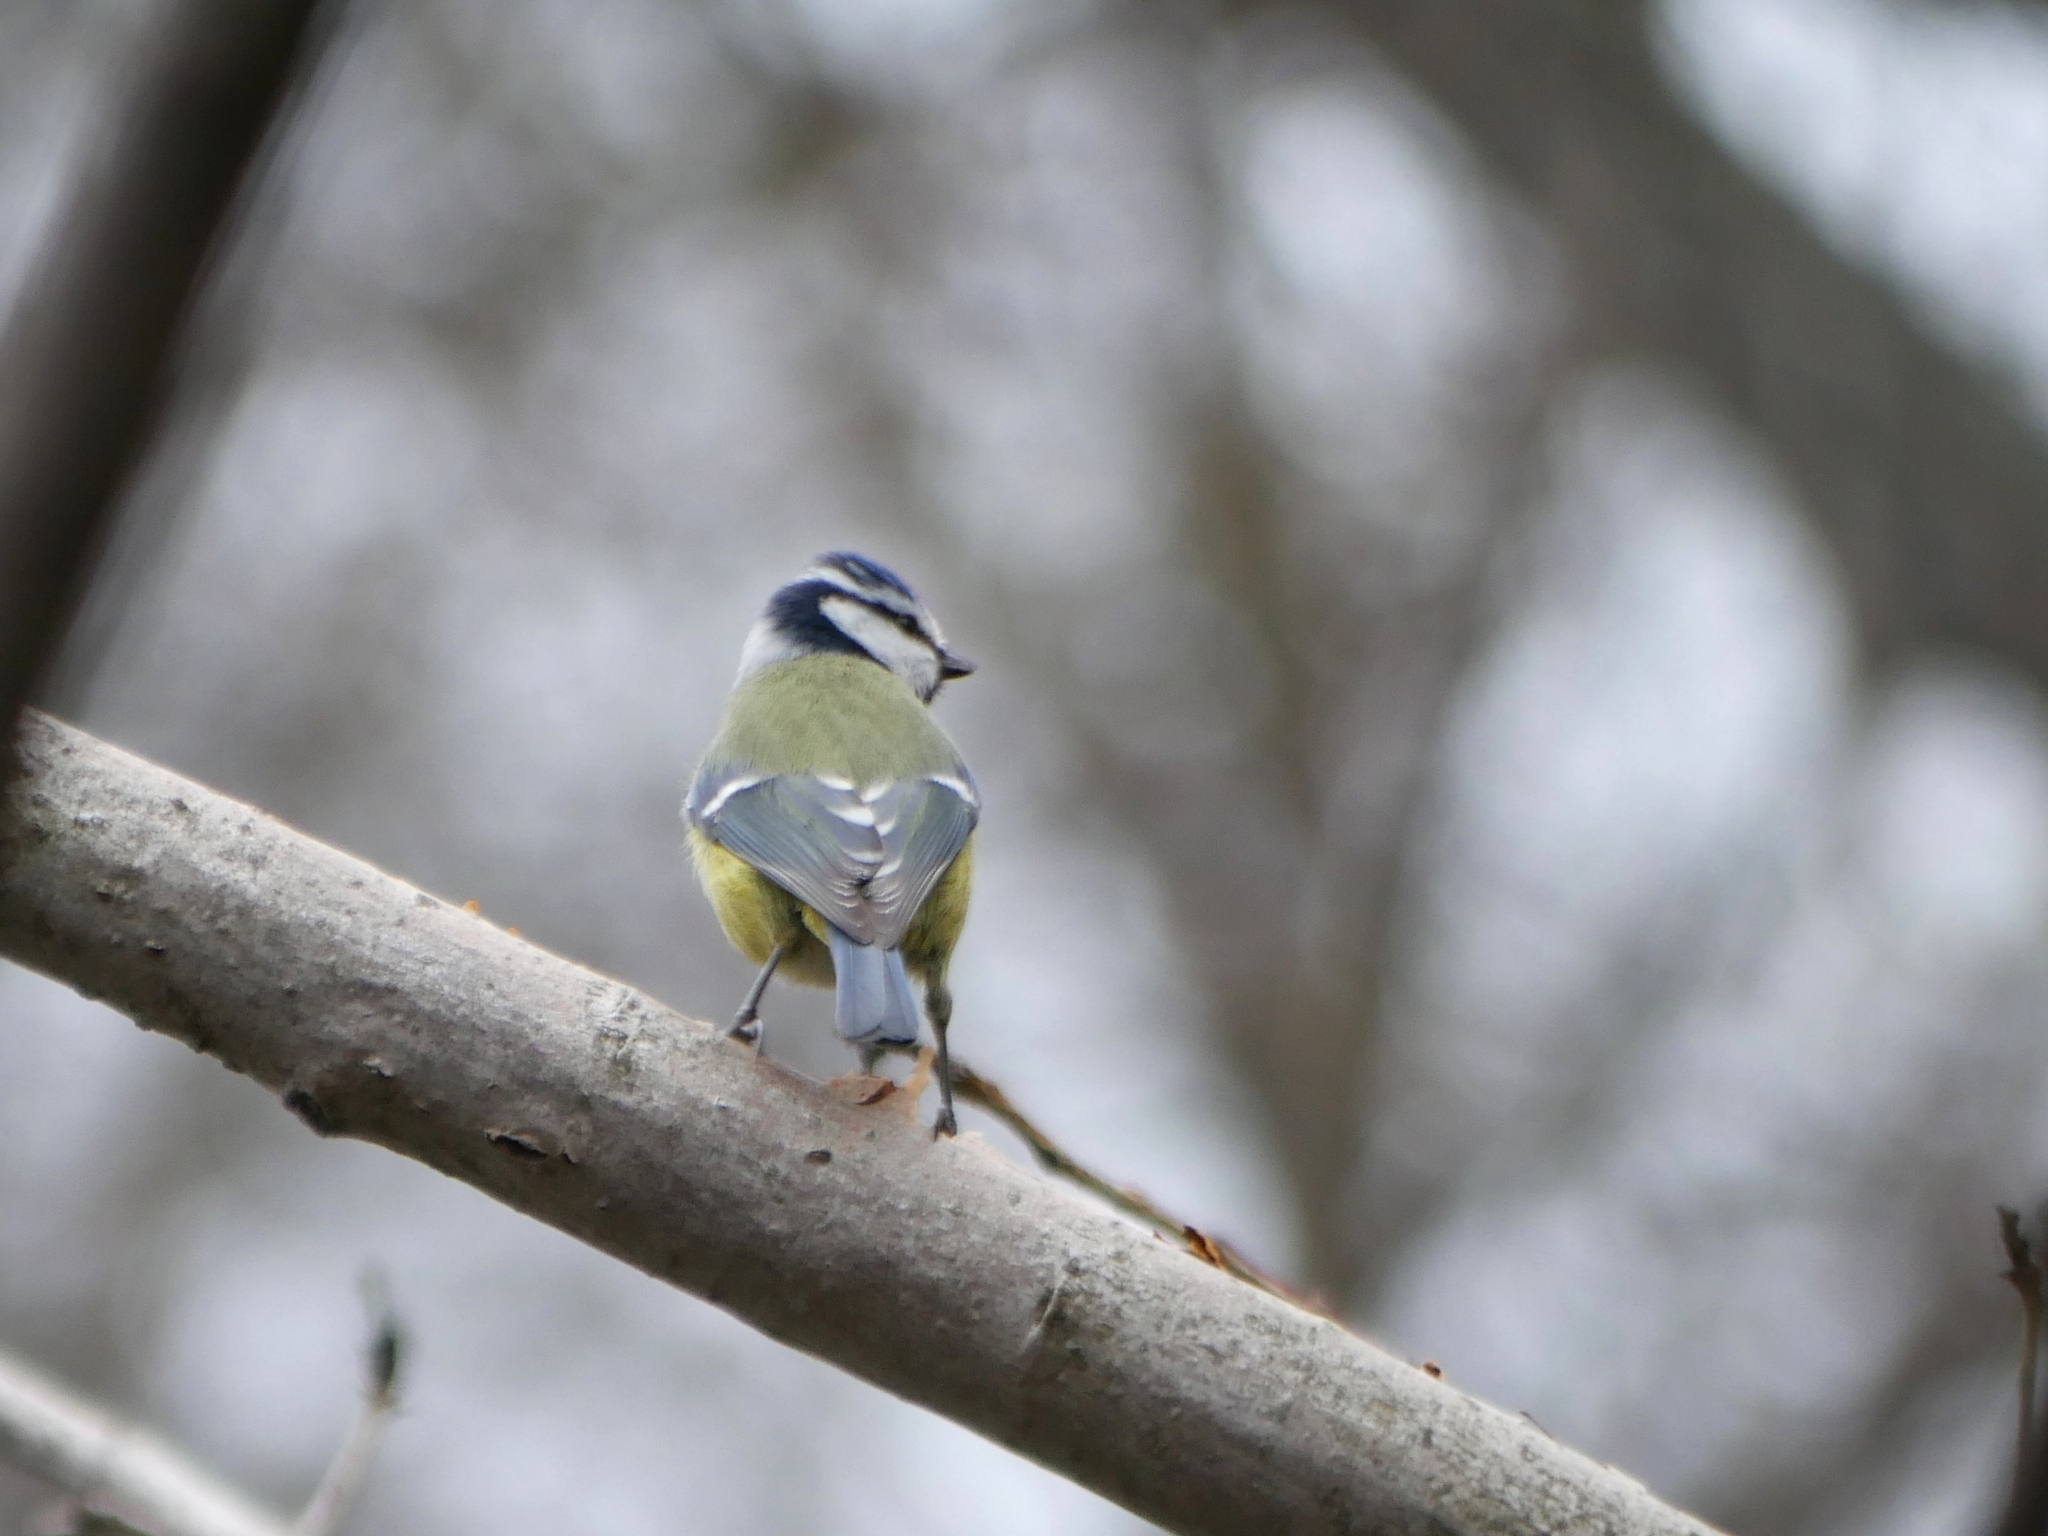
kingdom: Animalia
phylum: Chordata
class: Aves
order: Passeriformes
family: Paridae
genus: Cyanistes
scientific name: Cyanistes caeruleus
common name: Eurasian blue tit
